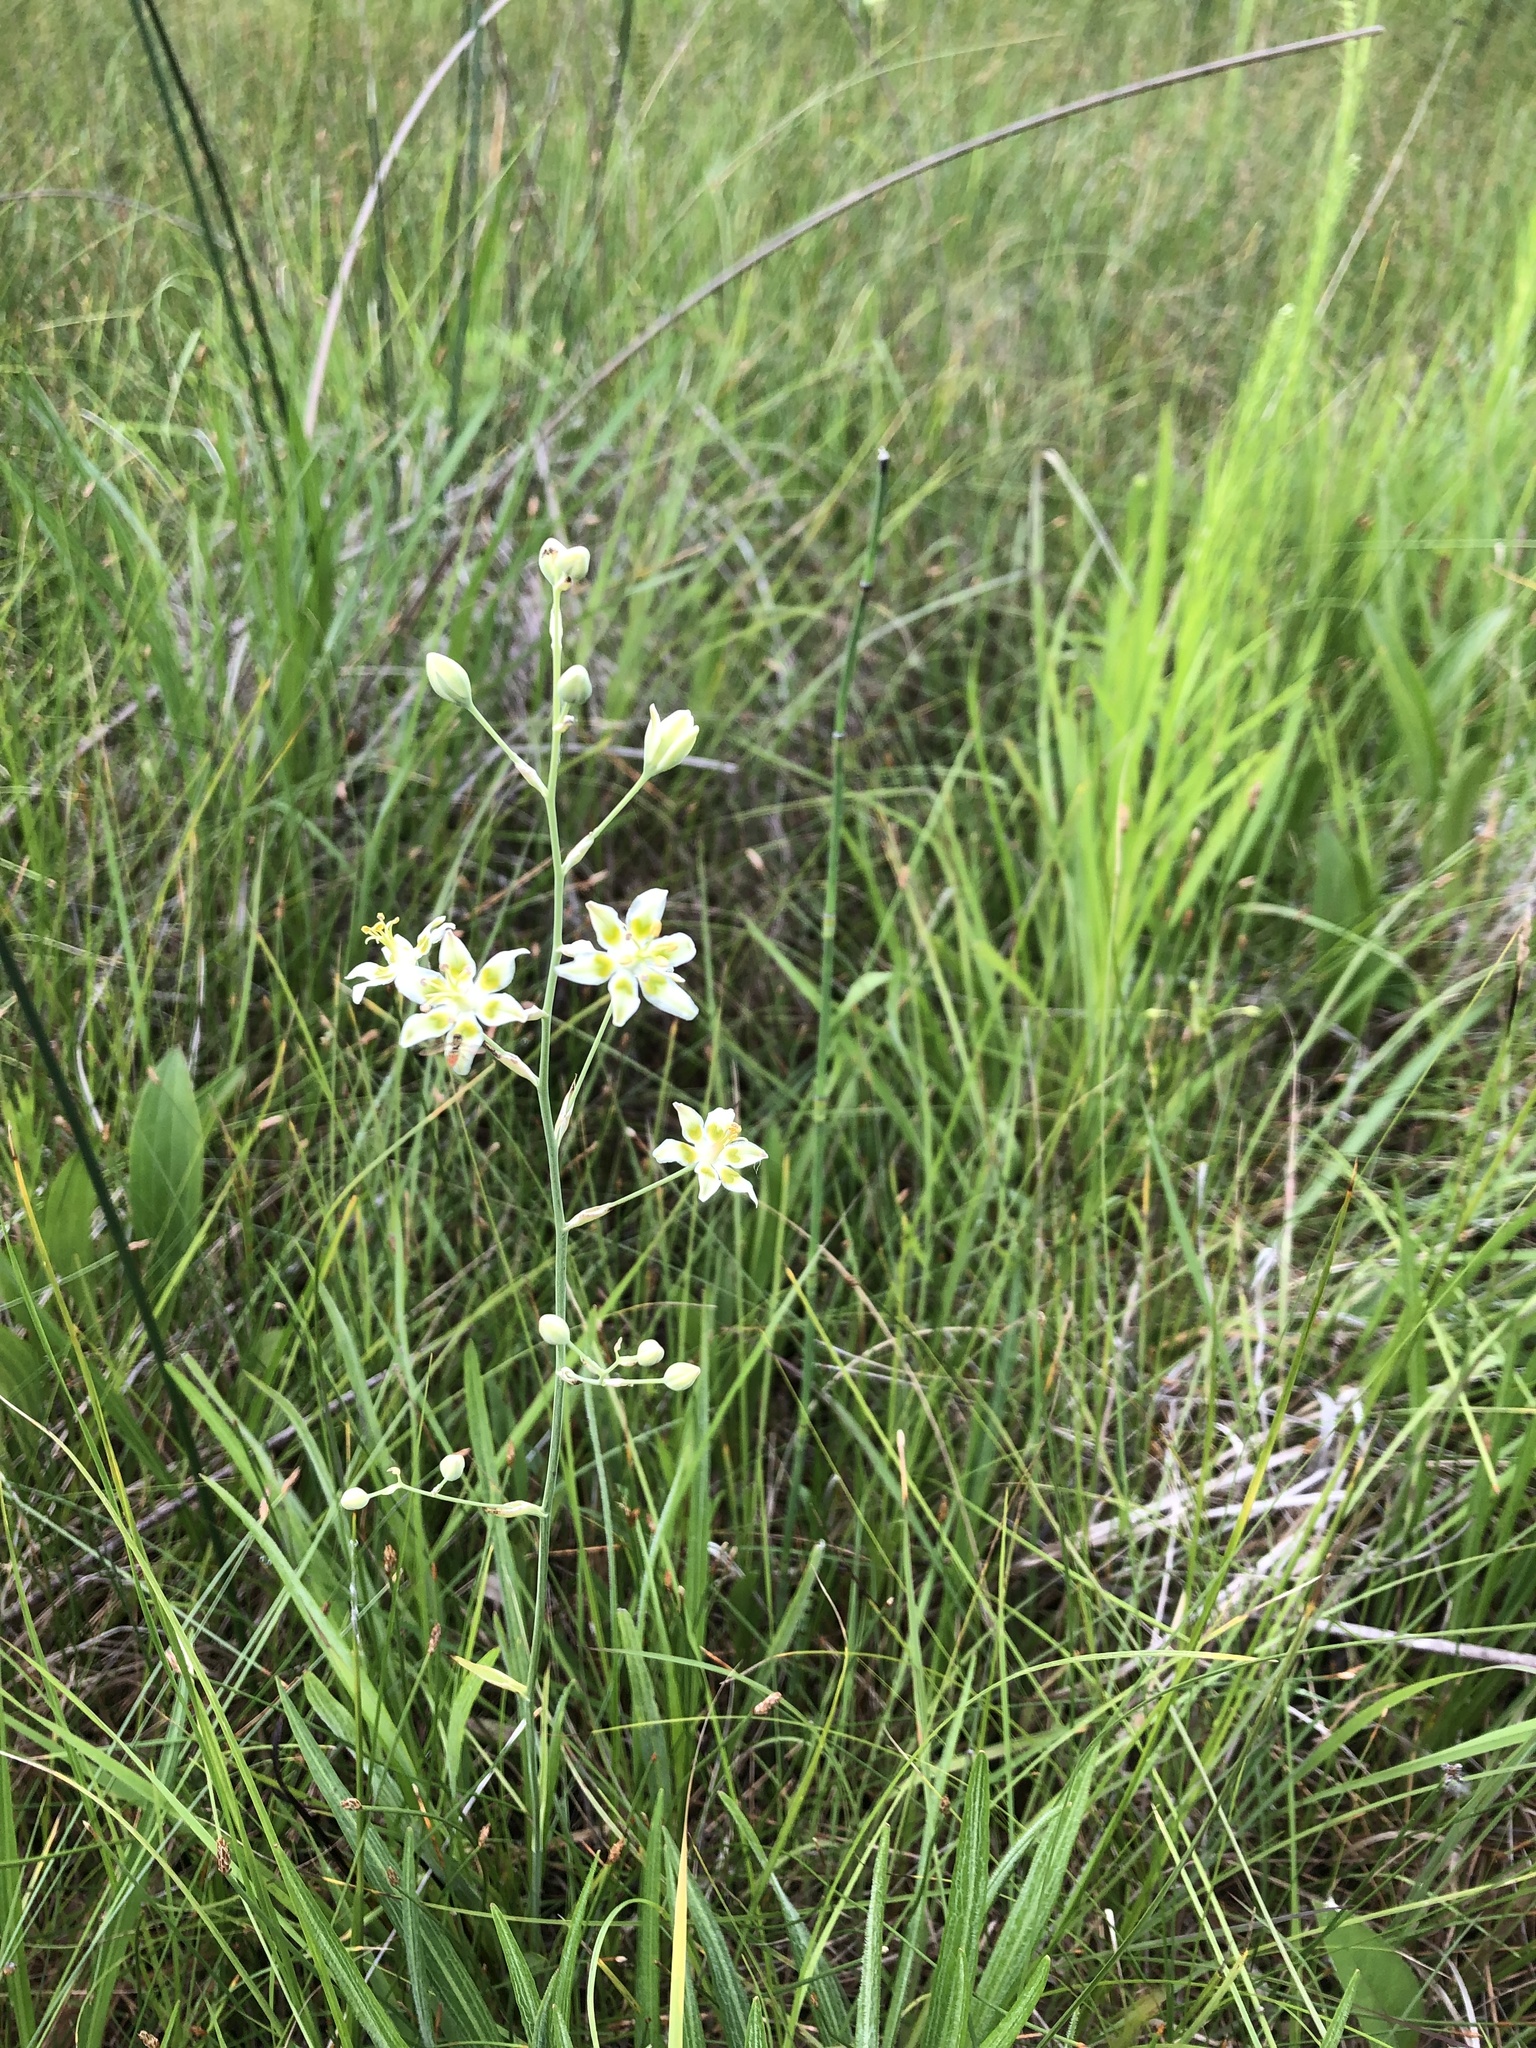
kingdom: Plantae
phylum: Tracheophyta
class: Liliopsida
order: Liliales
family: Melanthiaceae
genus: Anticlea
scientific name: Anticlea elegans
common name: Mountain death camas
